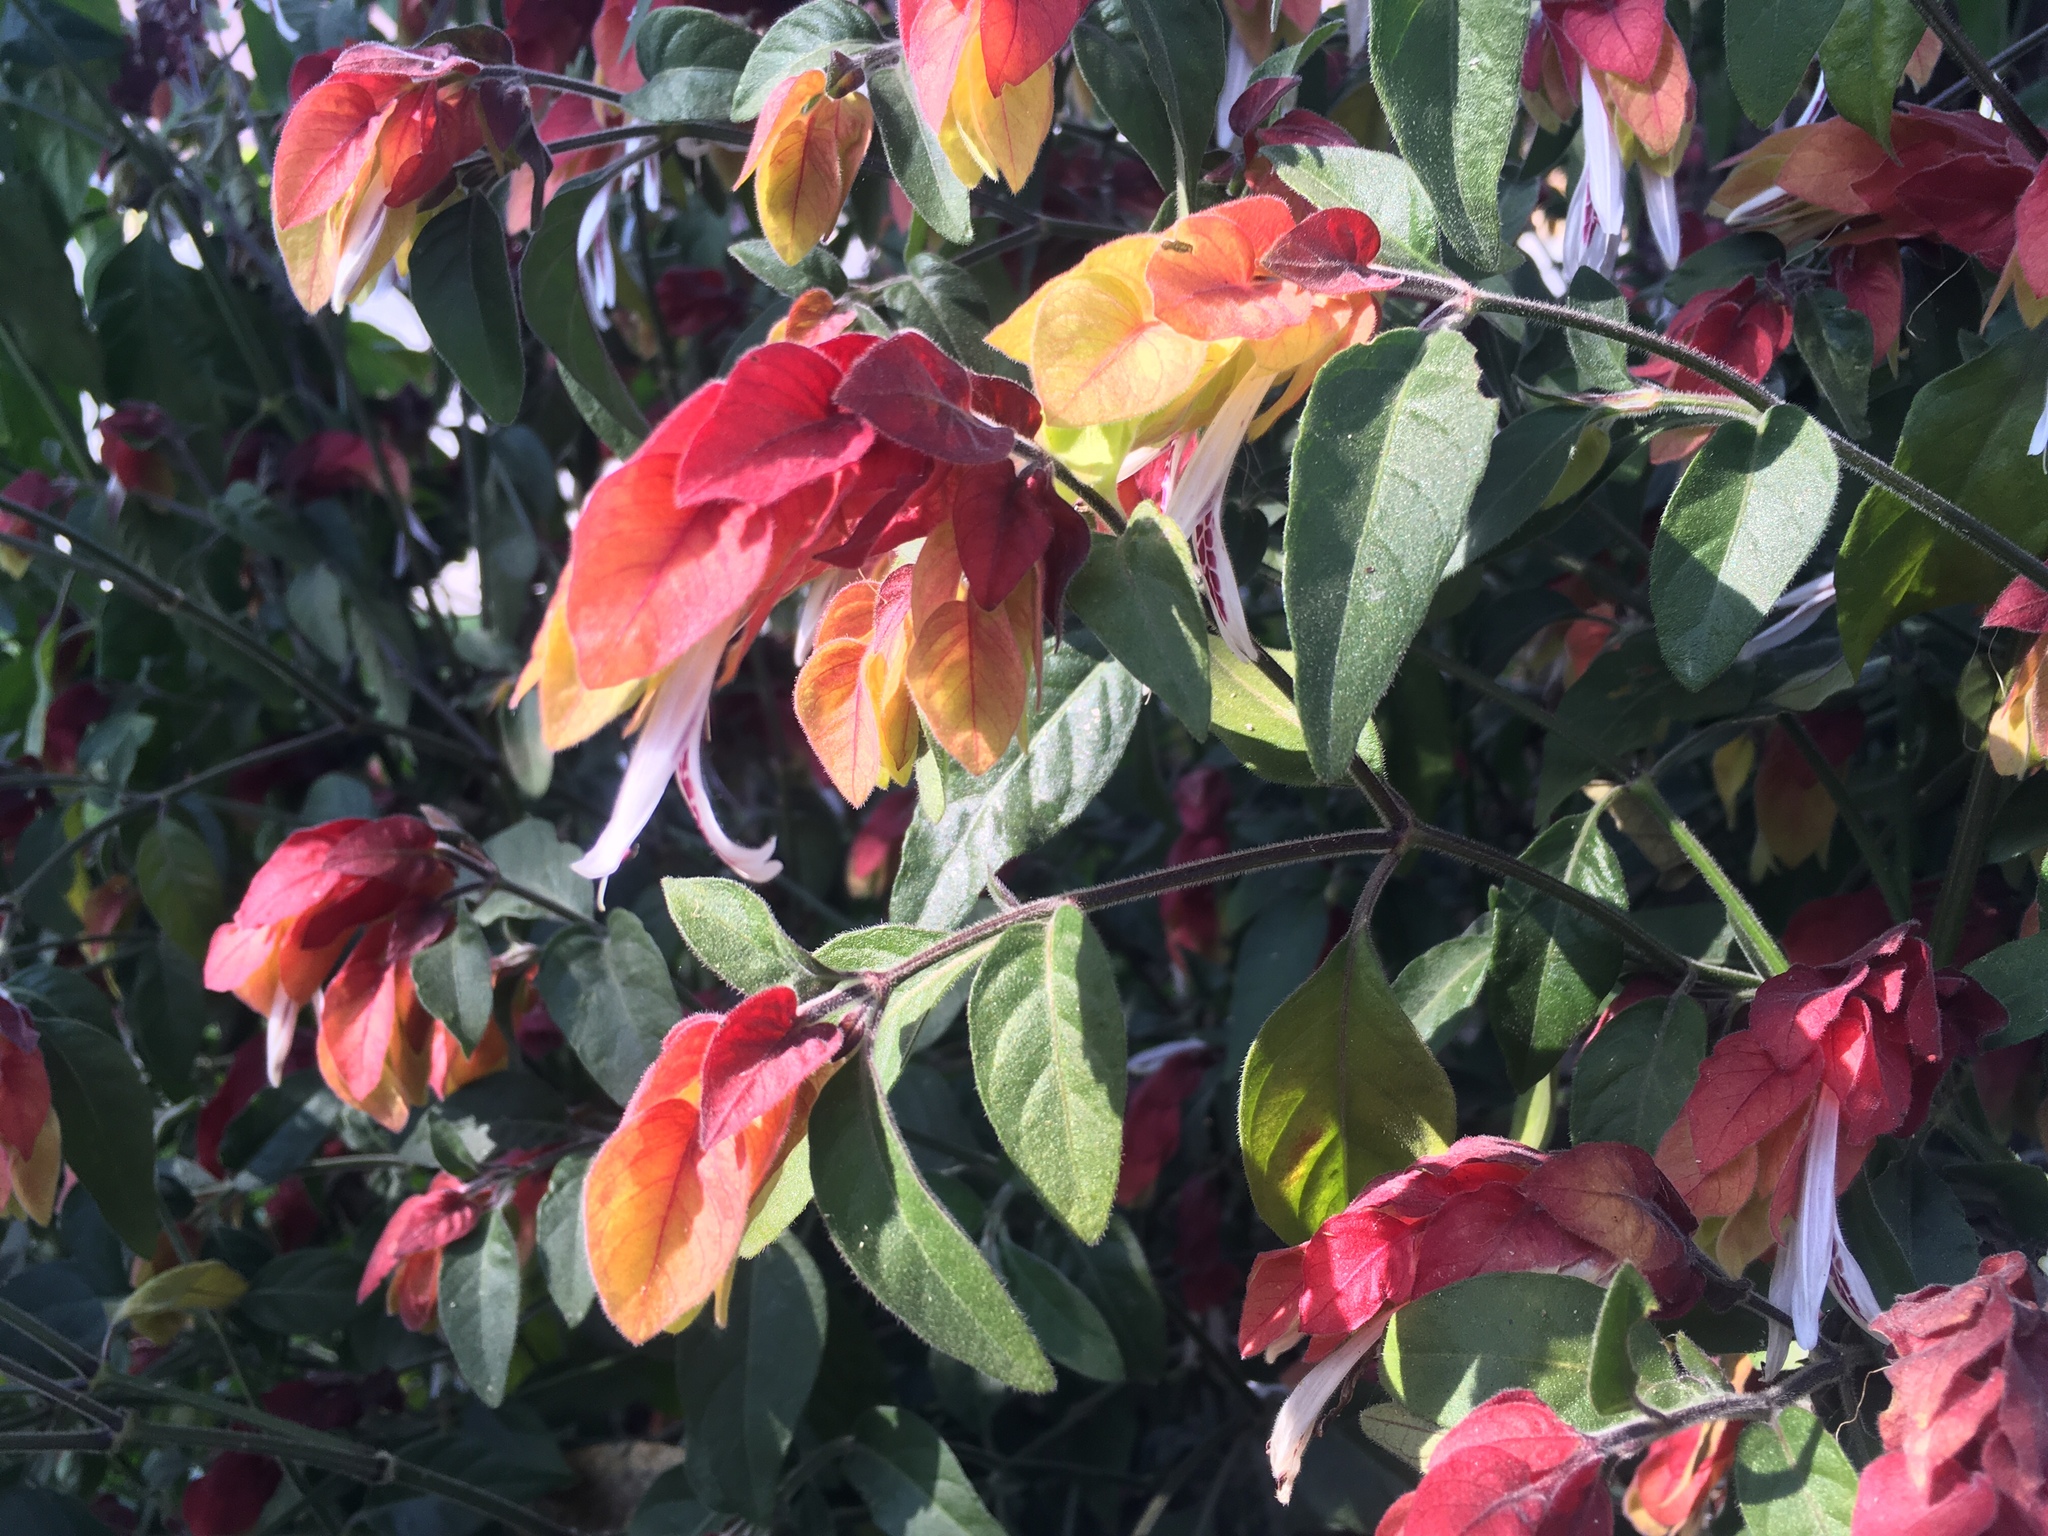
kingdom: Plantae
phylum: Tracheophyta
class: Magnoliopsida
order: Lamiales
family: Acanthaceae
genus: Justicia
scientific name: Justicia brandegeeana
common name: Shrimpplant
